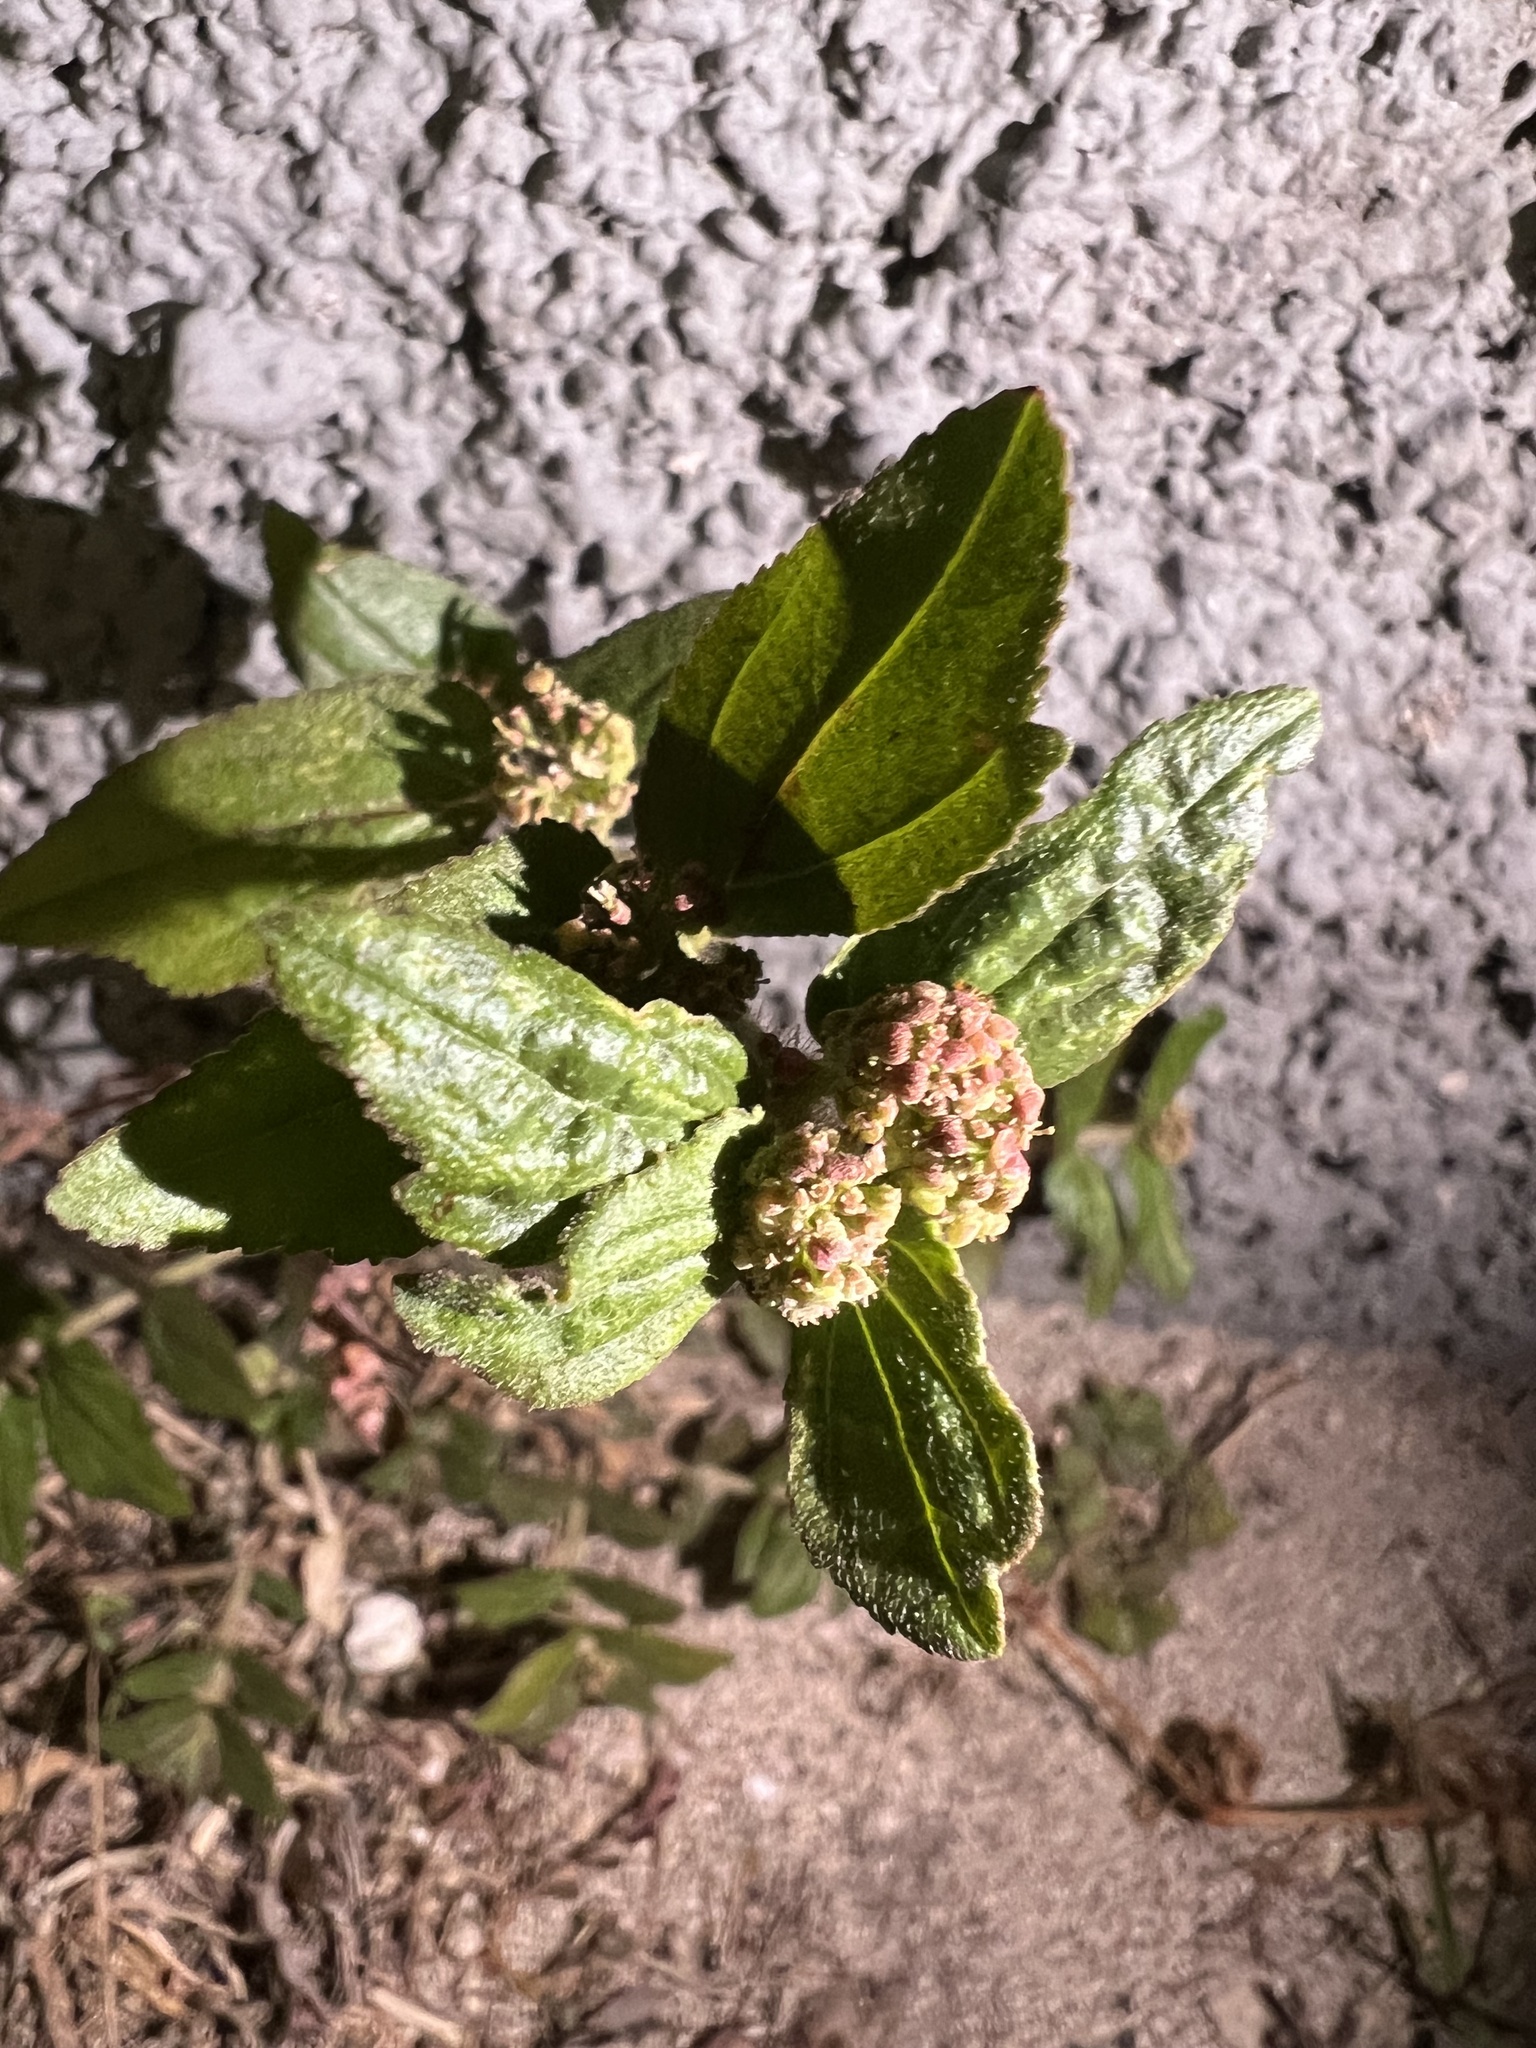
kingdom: Plantae
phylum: Tracheophyta
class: Magnoliopsida
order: Malpighiales
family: Euphorbiaceae
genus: Euphorbia
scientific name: Euphorbia hirta
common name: Pillpod sandmat
